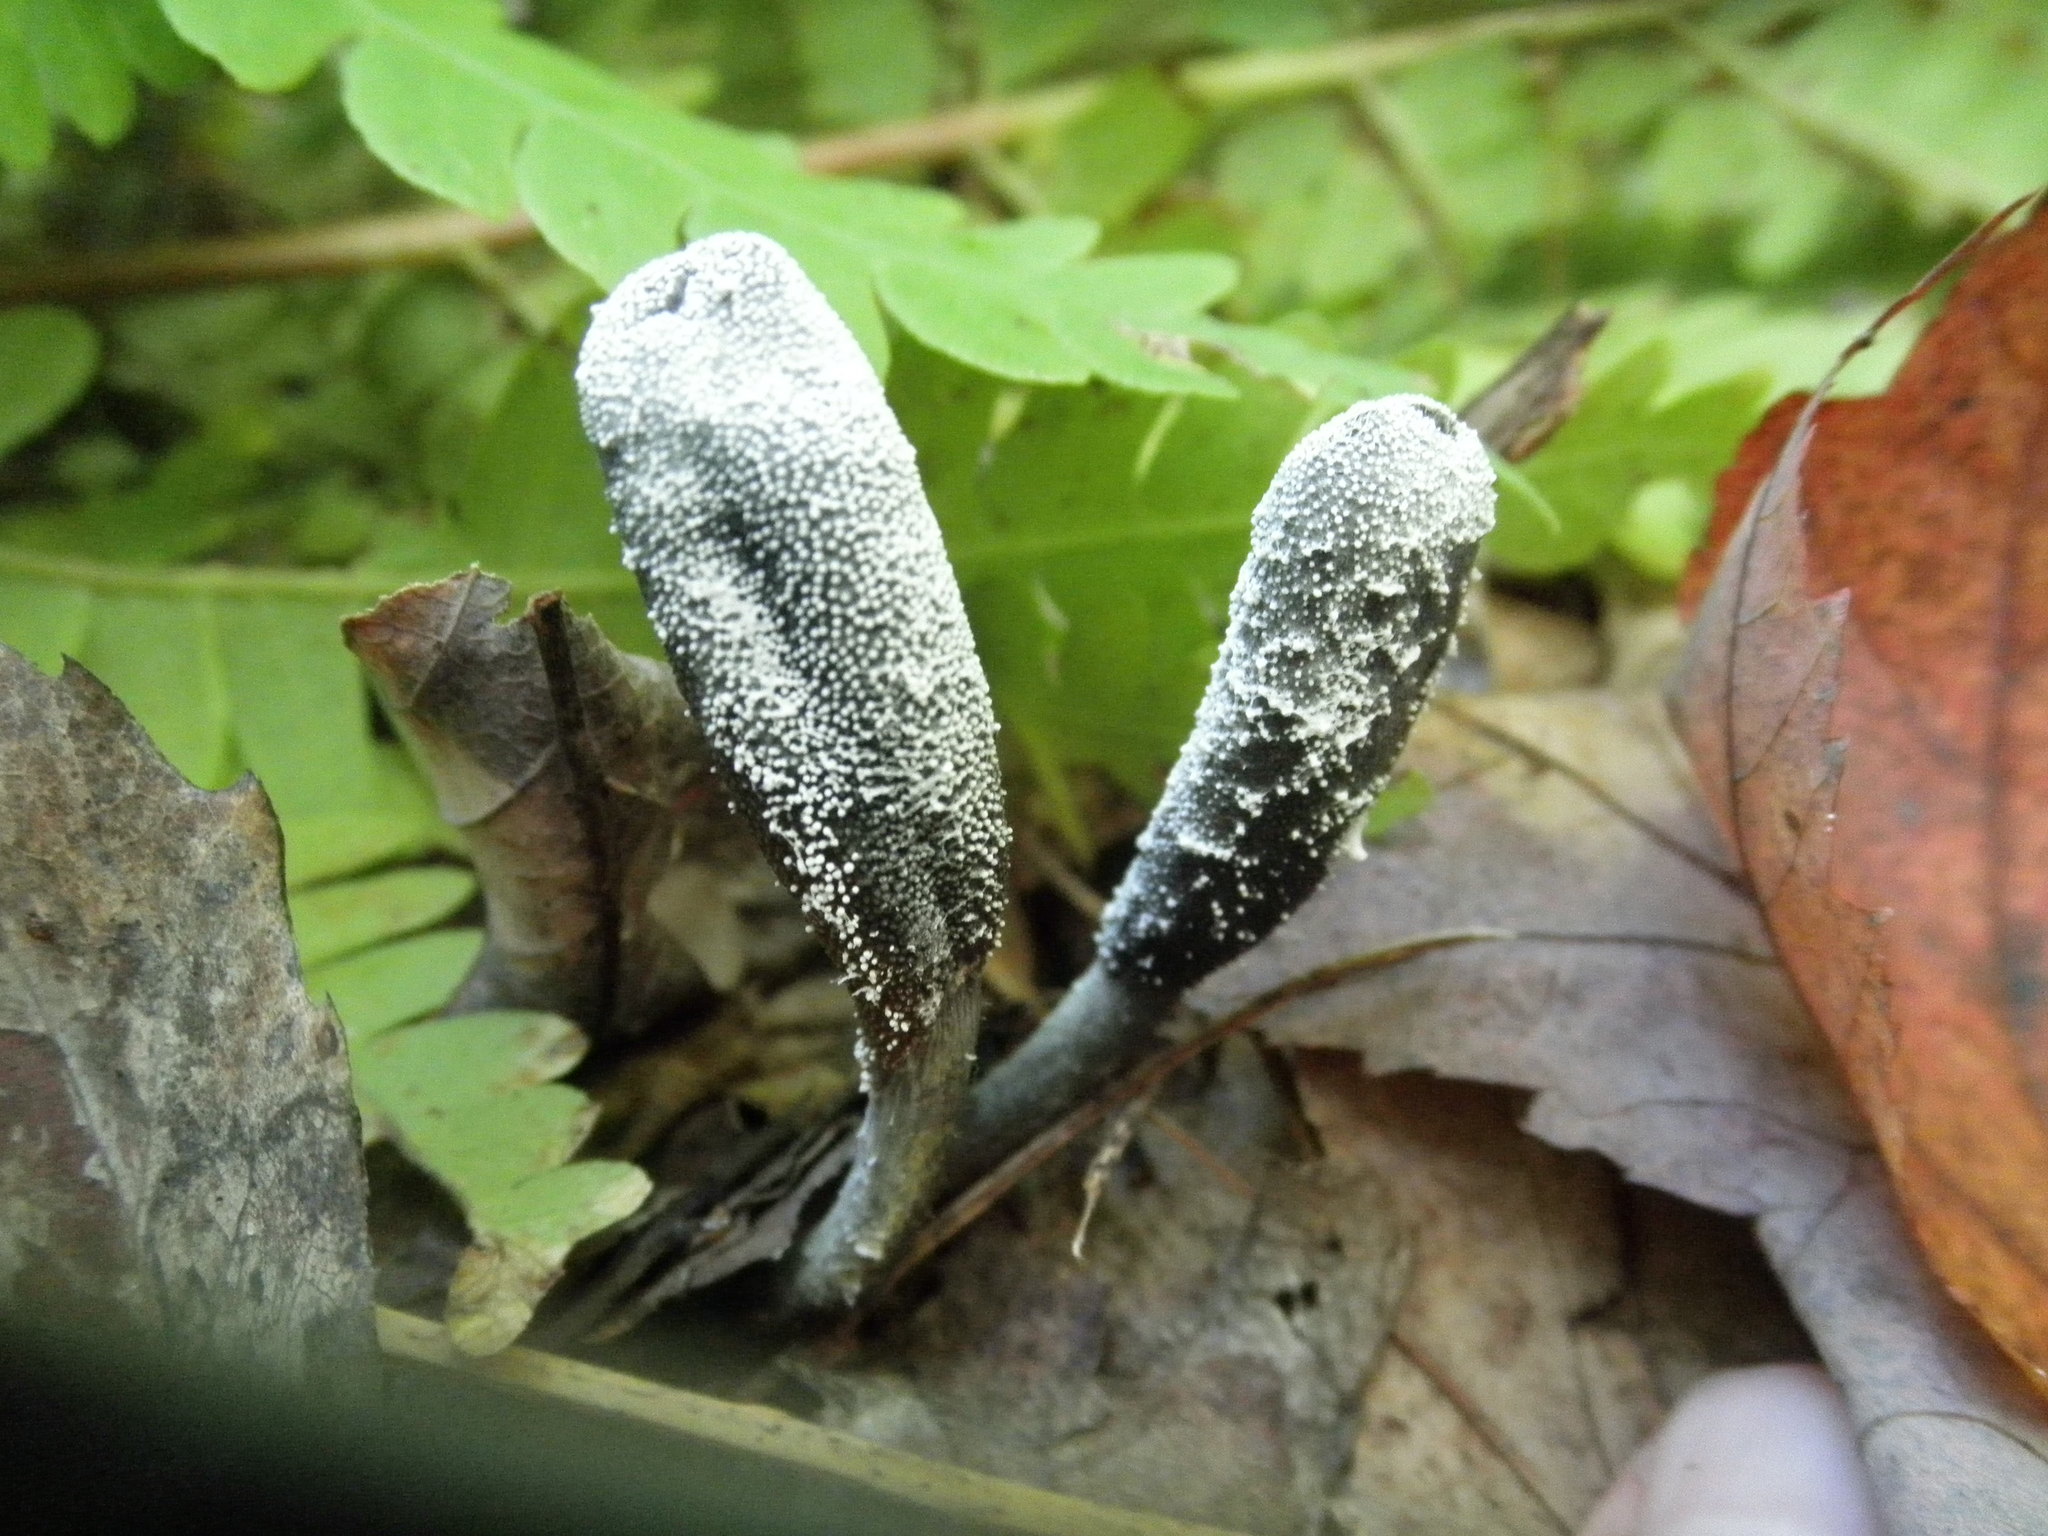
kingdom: Fungi
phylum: Ascomycota
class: Sordariomycetes
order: Hypocreales
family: Ophiocordycipitaceae
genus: Tolypocladium
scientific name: Tolypocladium ophioglossoides
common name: Snaketongue truffleclub
